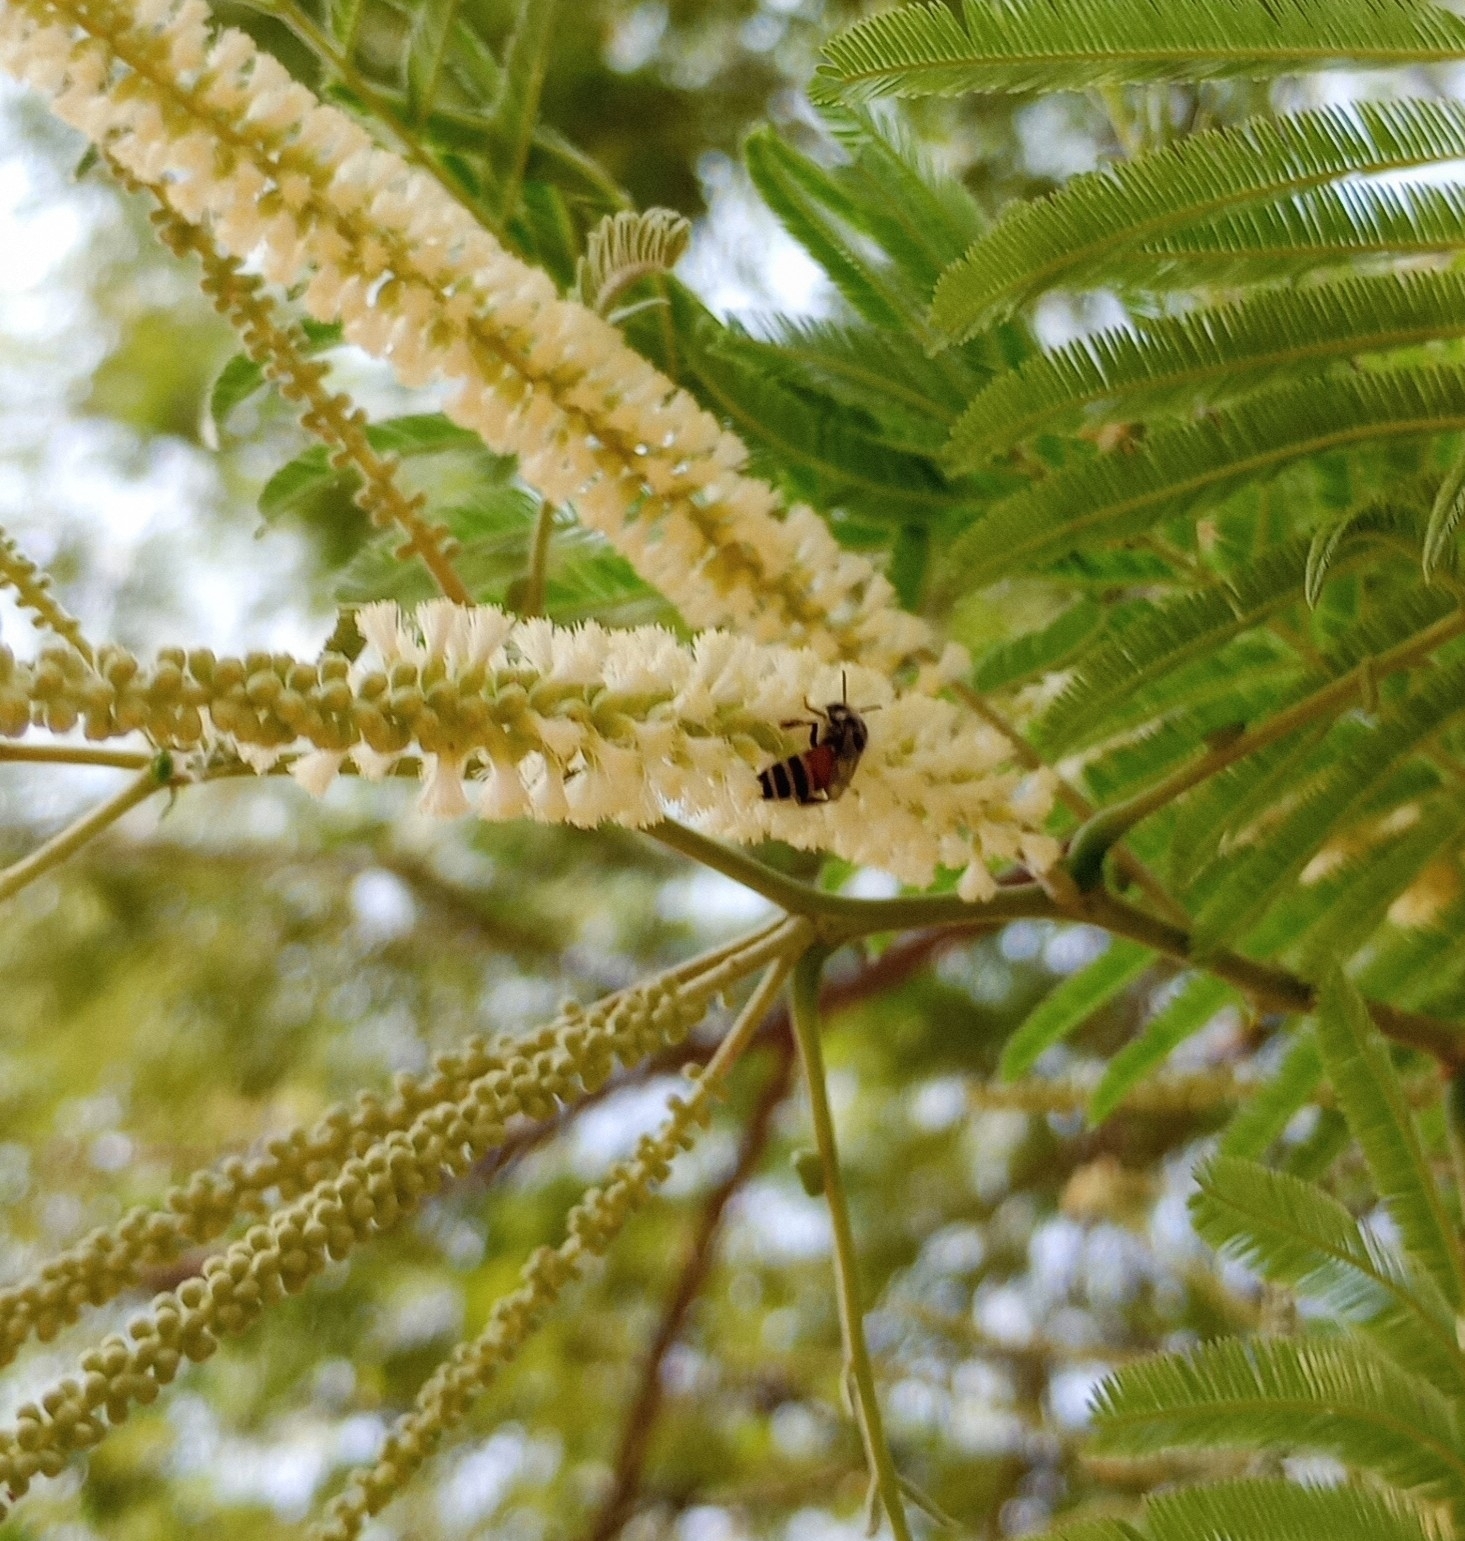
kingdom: Animalia
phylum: Arthropoda
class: Insecta
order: Hymenoptera
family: Apidae
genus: Apis
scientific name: Apis florea
